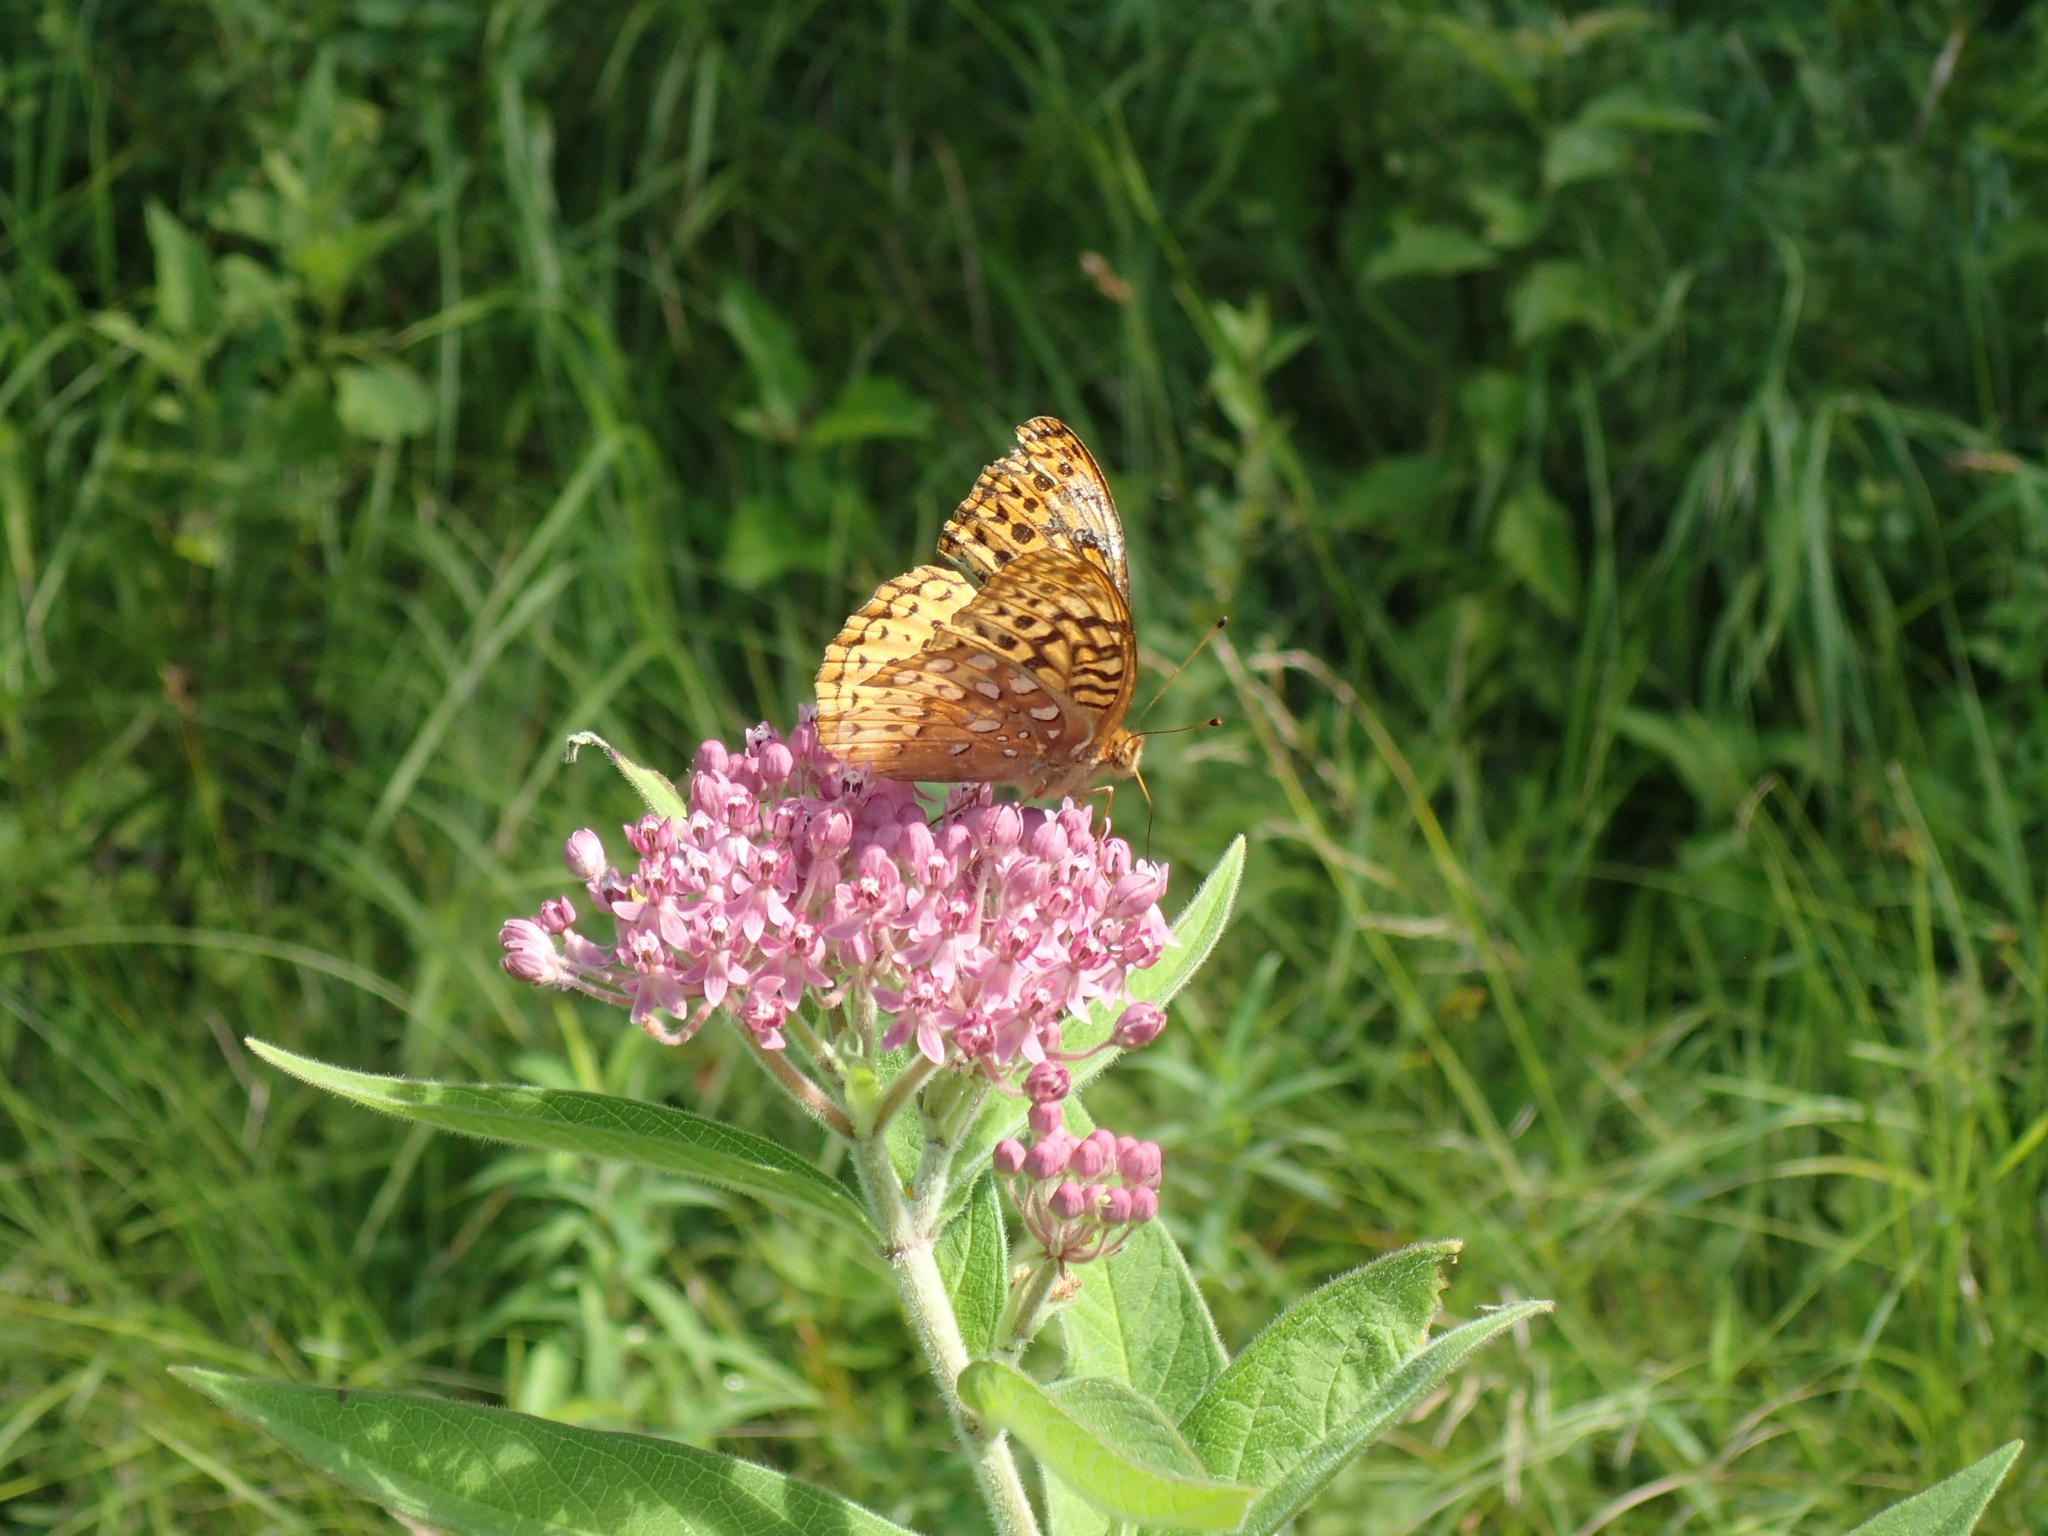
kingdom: Animalia
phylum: Arthropoda
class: Insecta
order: Lepidoptera
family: Nymphalidae
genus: Speyeria
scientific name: Speyeria cybele
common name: Great spangled fritillary
